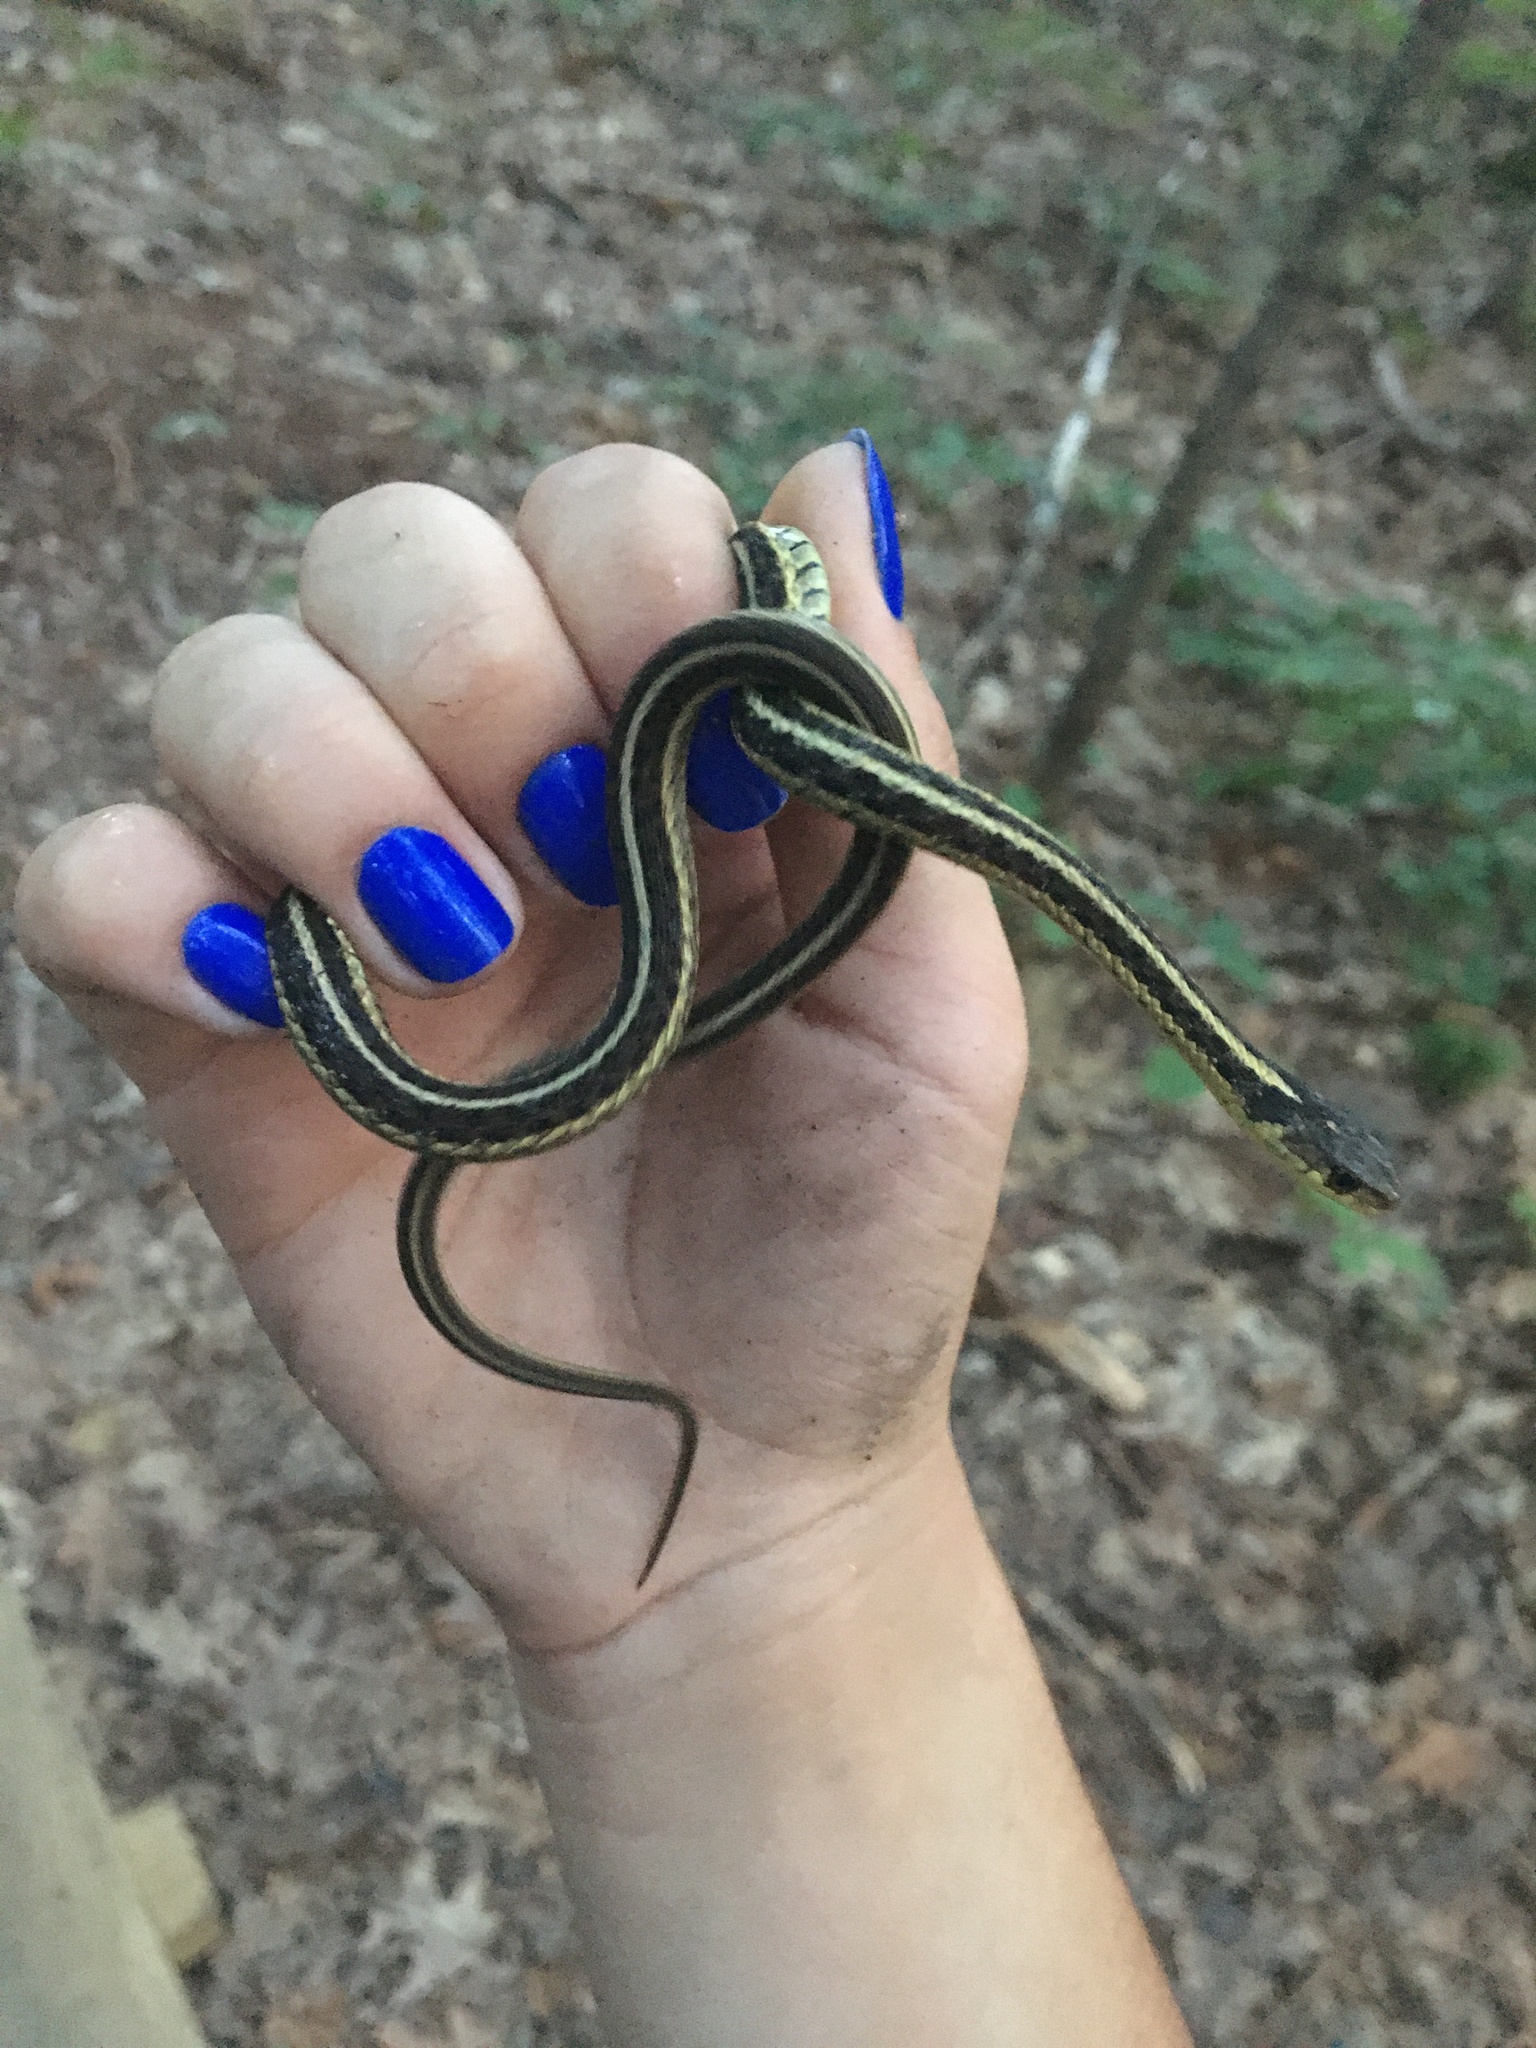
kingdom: Animalia
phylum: Chordata
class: Squamata
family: Colubridae
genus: Thamnophis
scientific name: Thamnophis sirtalis
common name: Common garter snake
